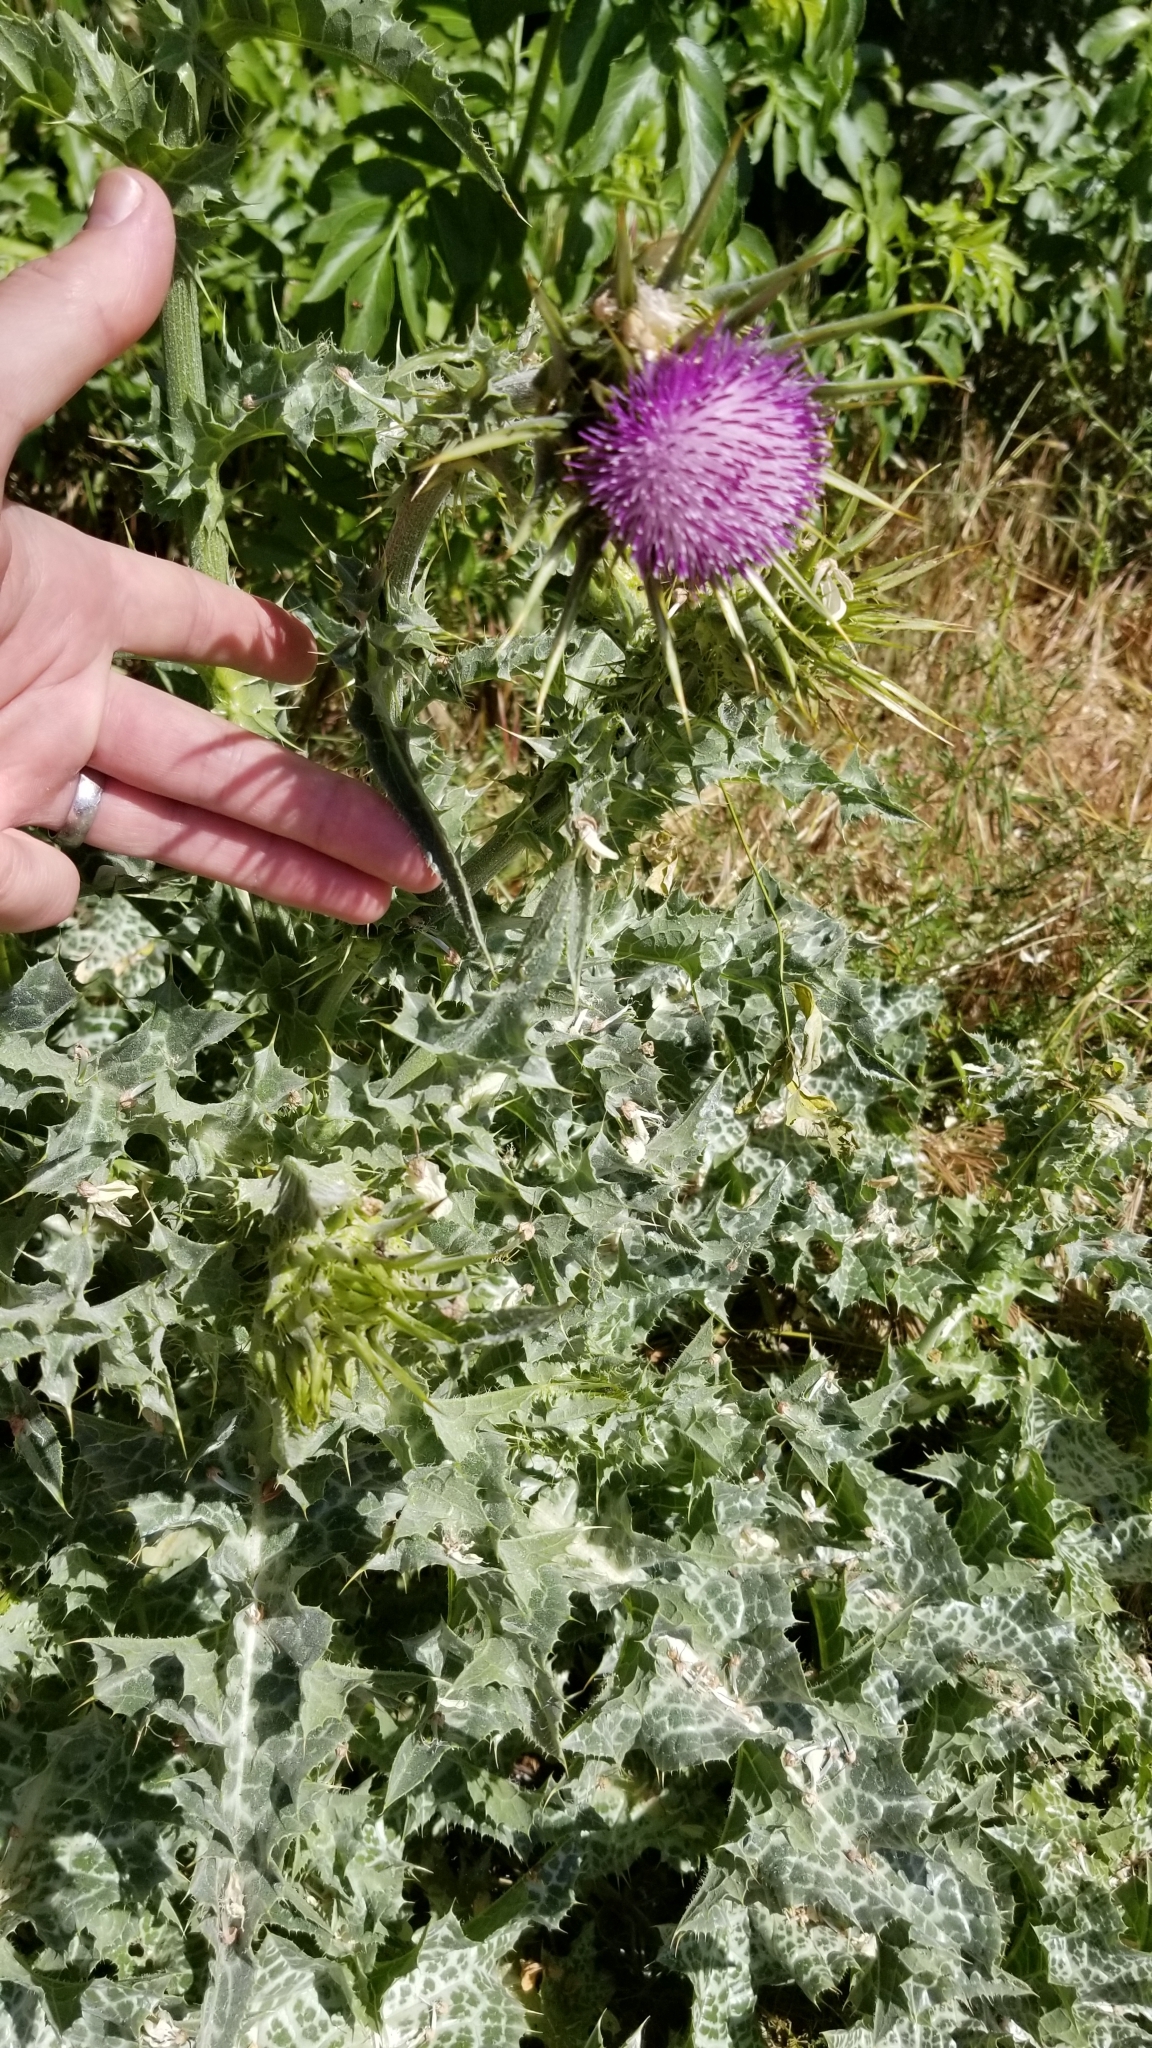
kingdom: Plantae
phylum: Tracheophyta
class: Magnoliopsida
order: Asterales
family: Asteraceae
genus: Silybum
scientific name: Silybum marianum
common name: Milk thistle
